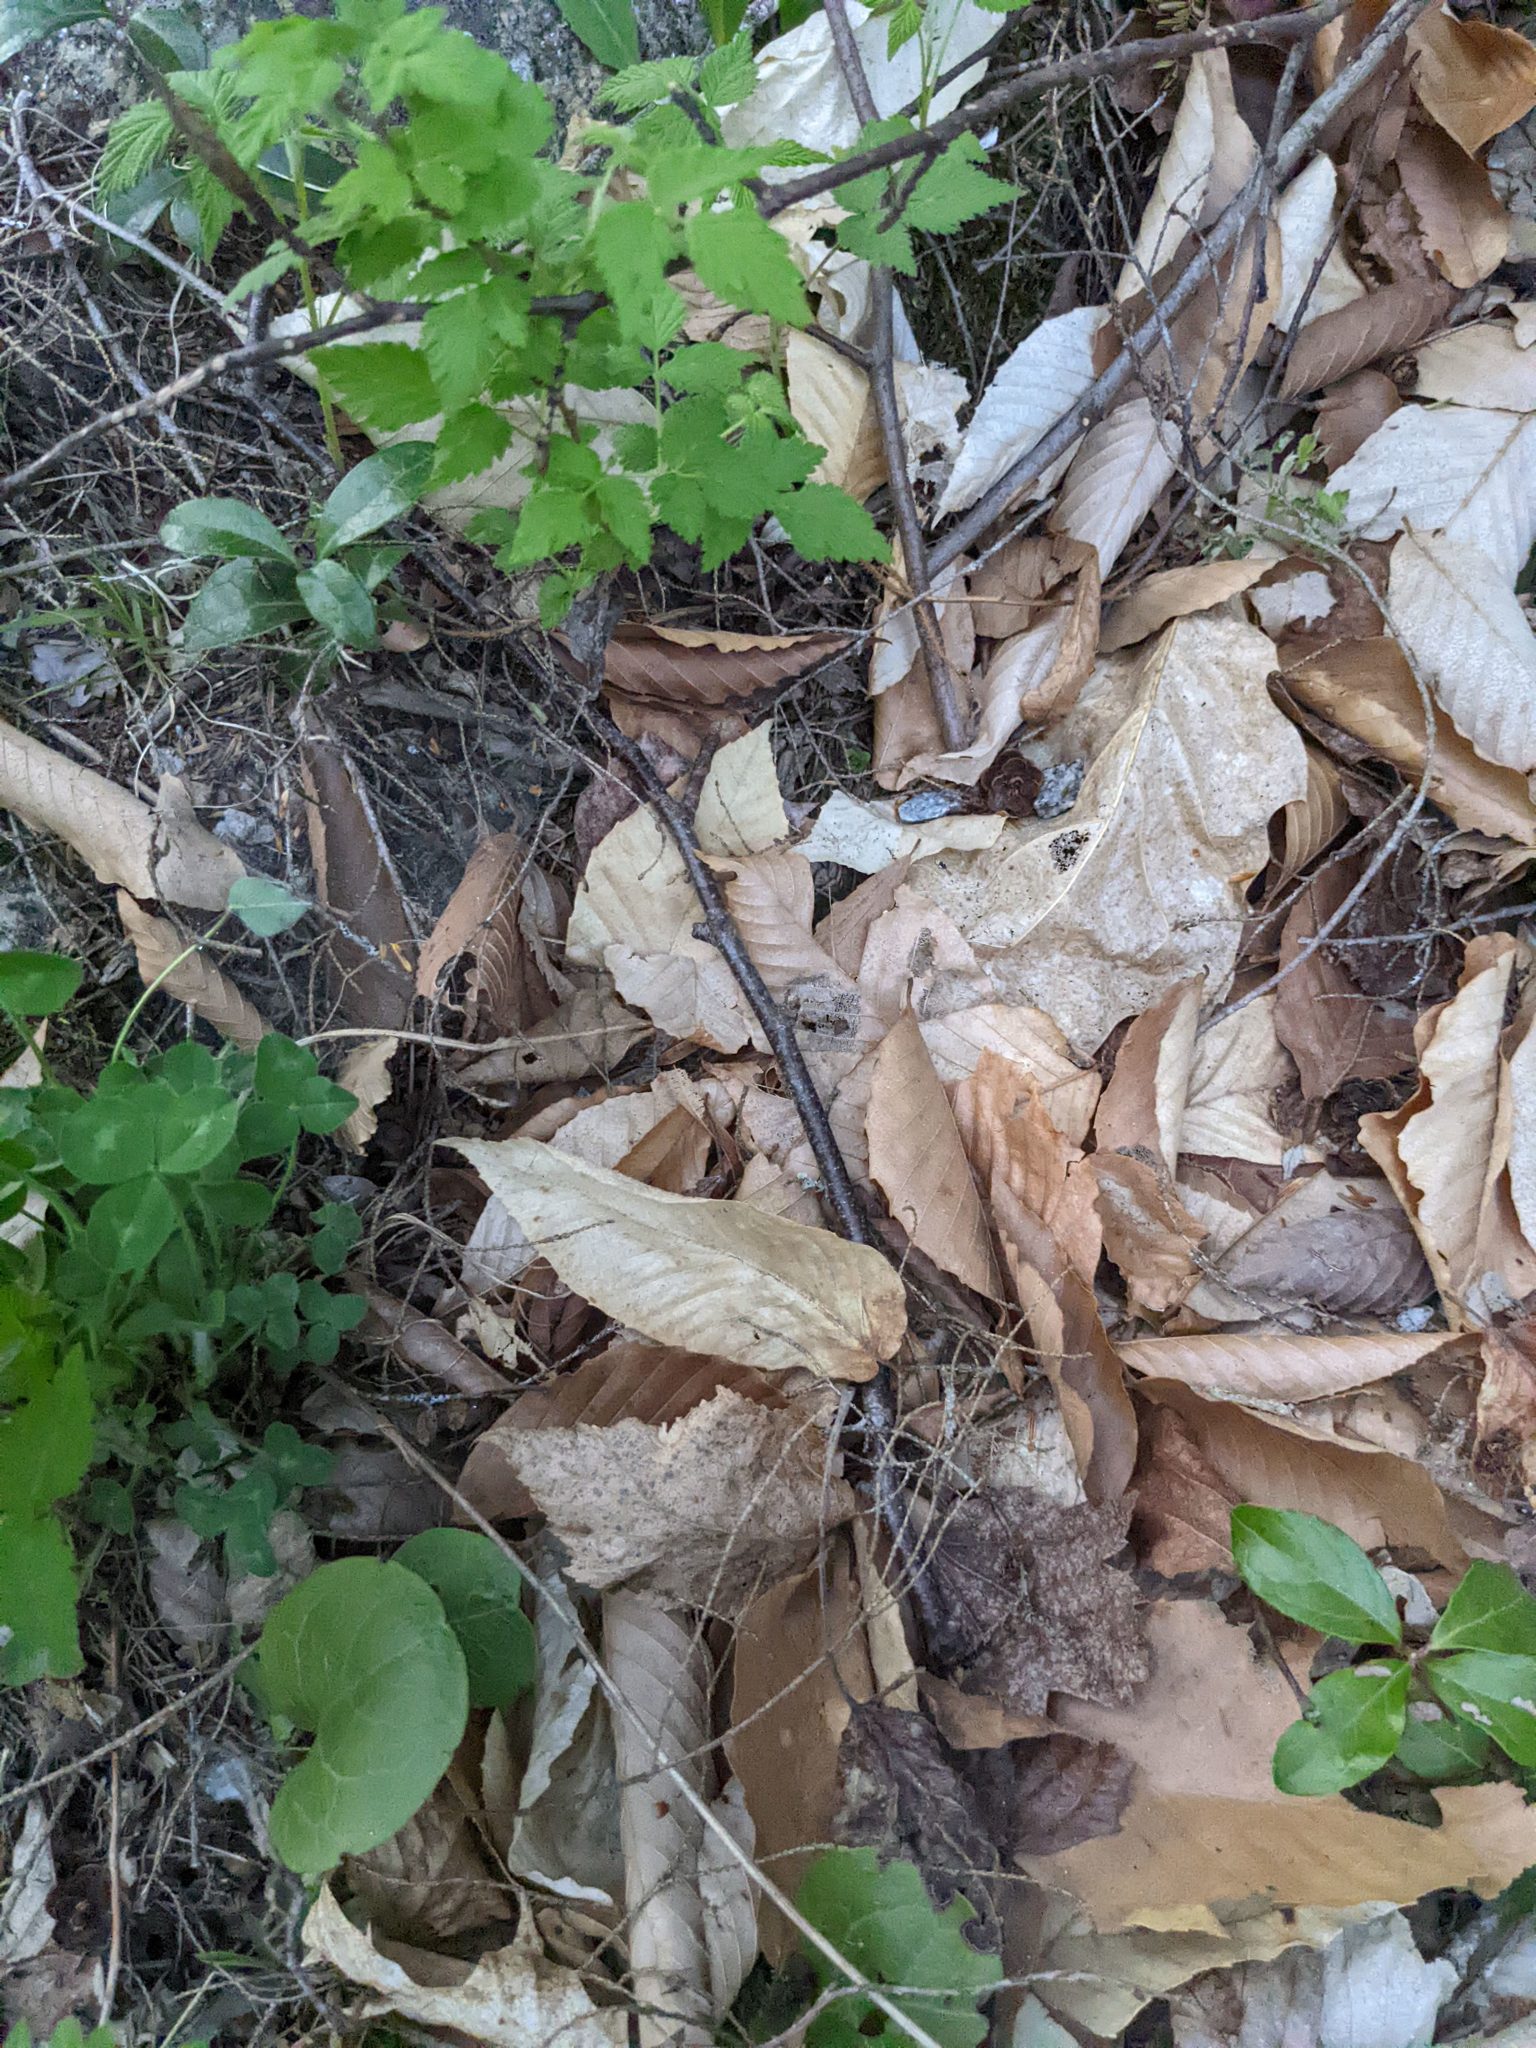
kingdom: Plantae
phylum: Tracheophyta
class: Magnoliopsida
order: Fagales
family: Fagaceae
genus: Fagus
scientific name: Fagus grandifolia
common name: American beech
